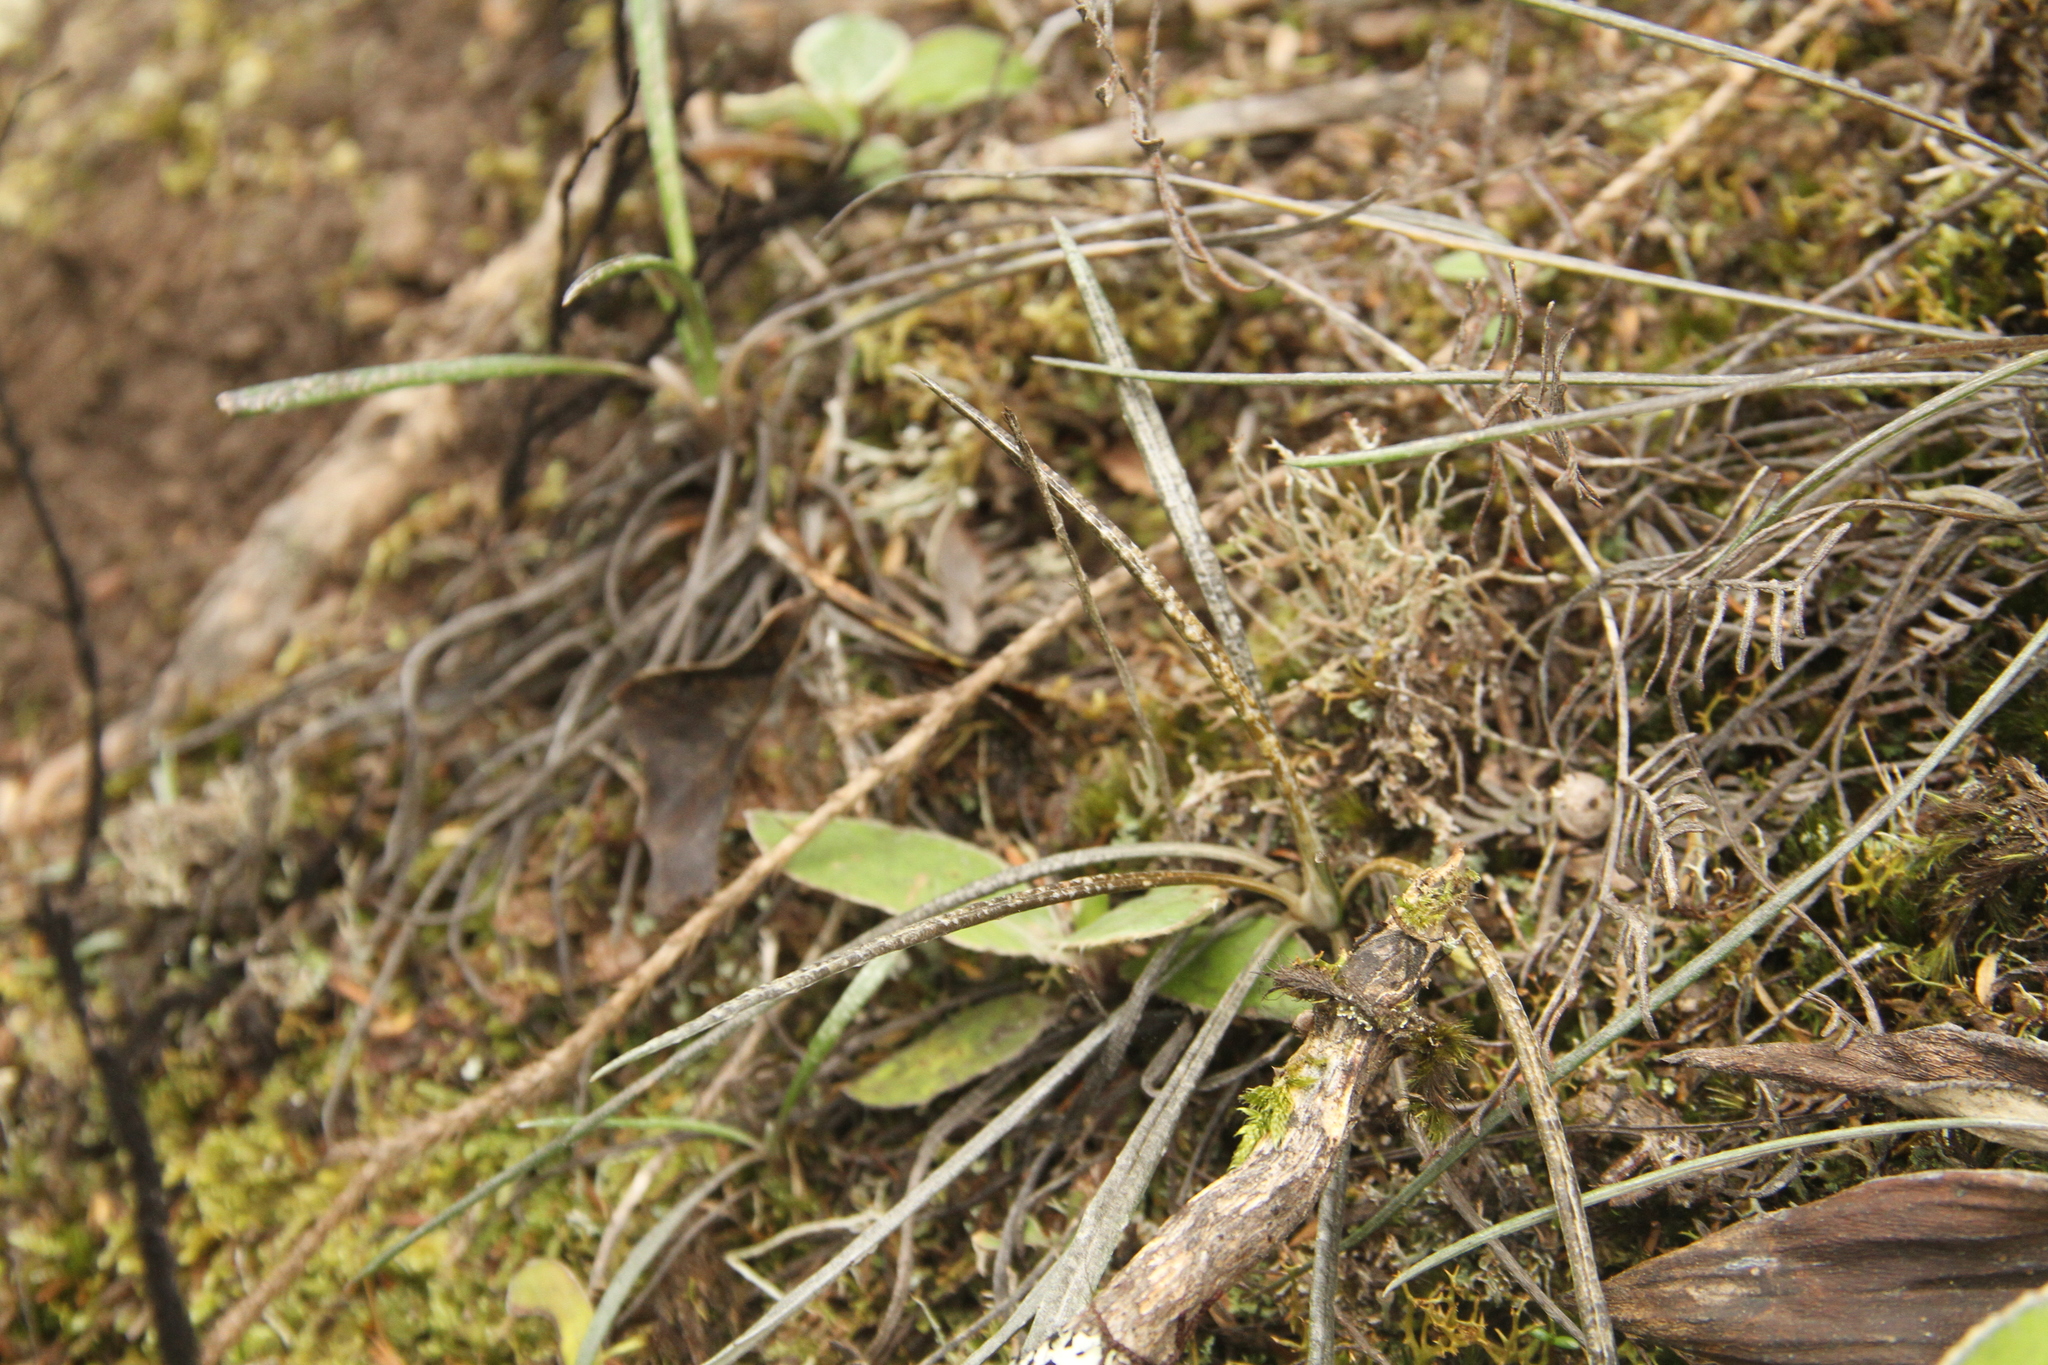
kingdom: Plantae
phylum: Tracheophyta
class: Magnoliopsida
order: Asterales
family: Asteraceae
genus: Celmisia
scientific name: Celmisia gracilenta
